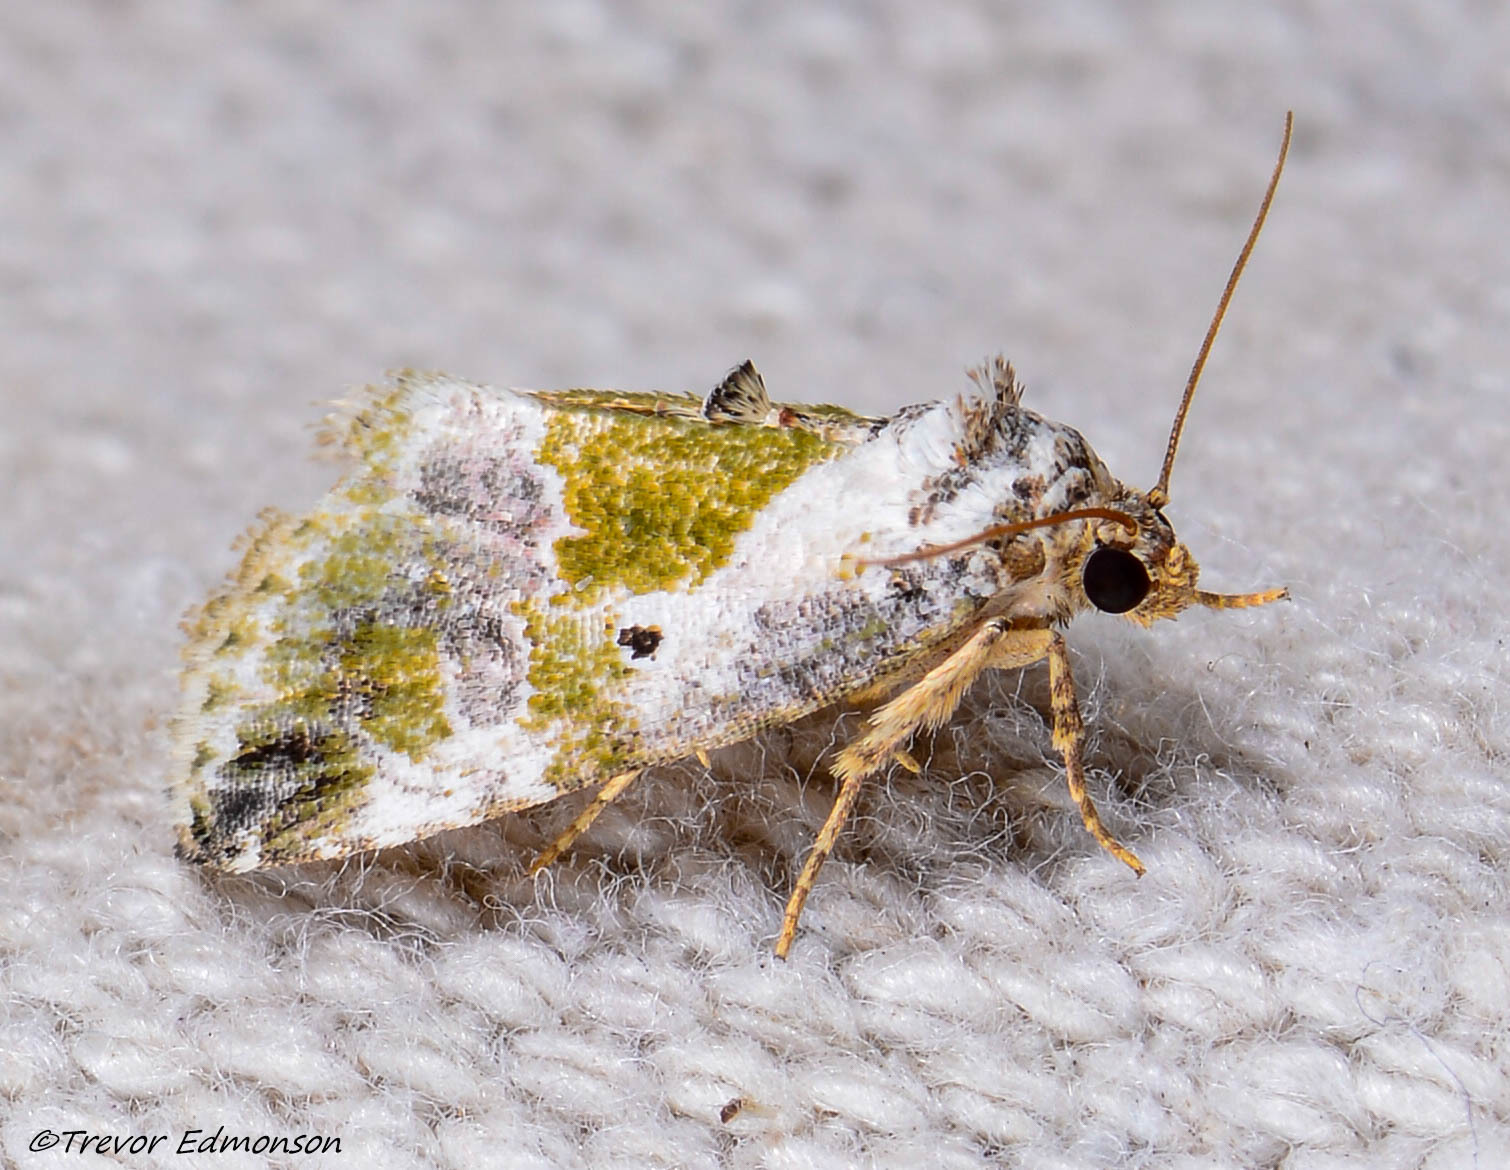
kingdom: Animalia
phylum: Arthropoda
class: Insecta
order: Lepidoptera
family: Noctuidae
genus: Maliattha
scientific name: Maliattha synochitis
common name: Black-dotted glyph
